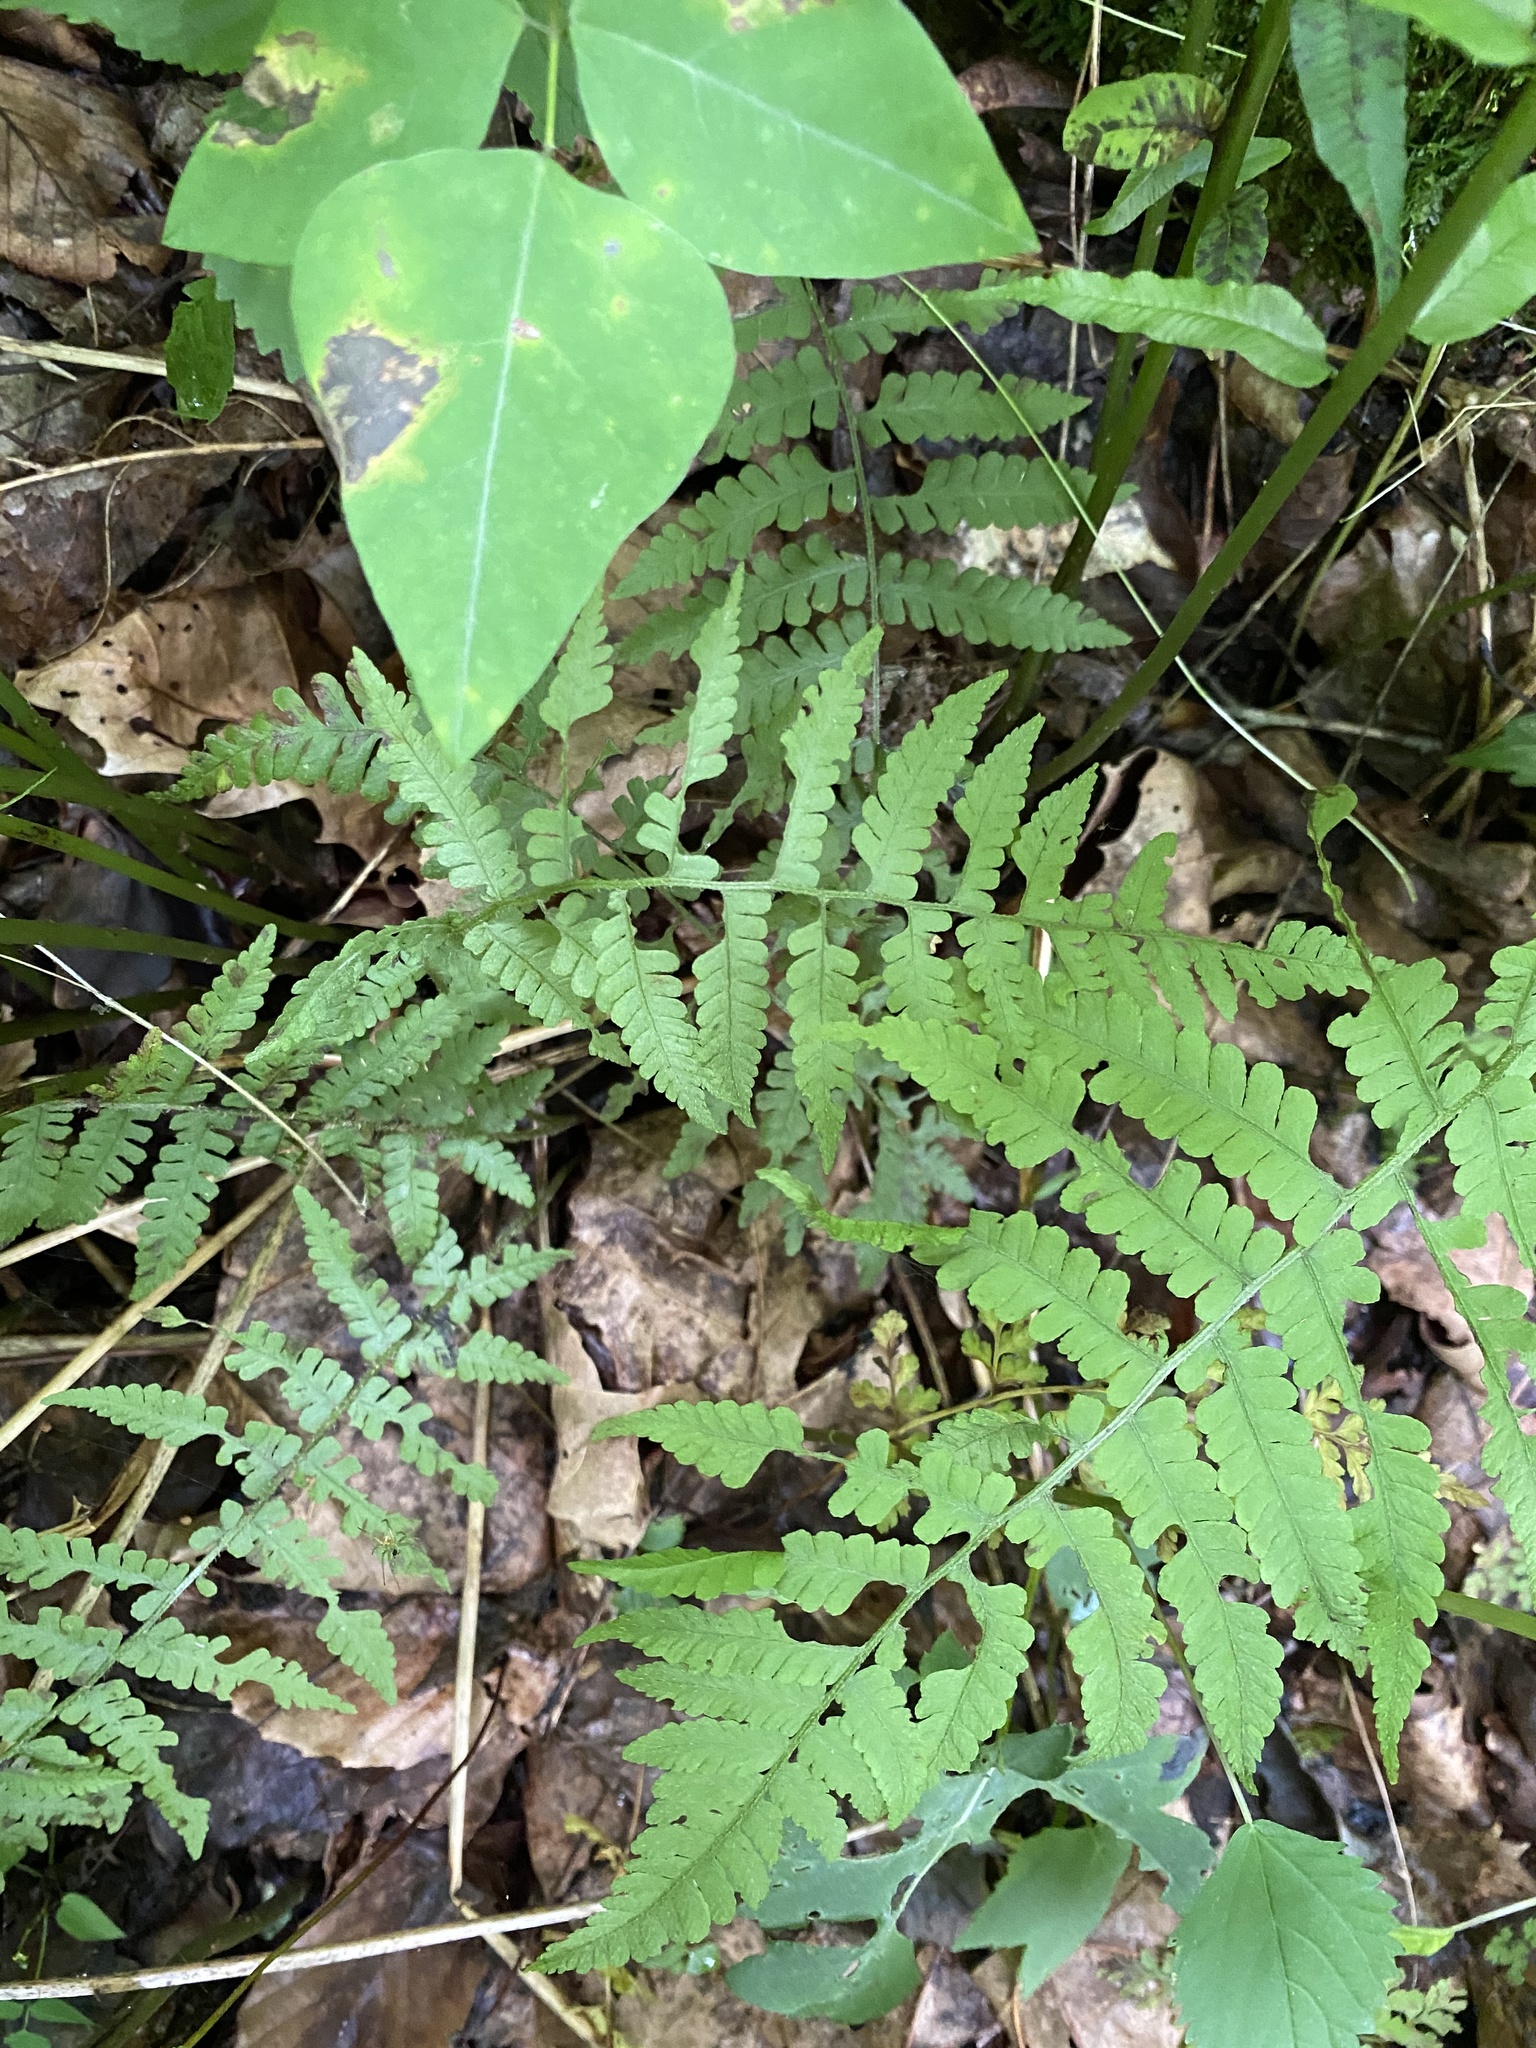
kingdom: Plantae
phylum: Tracheophyta
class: Polypodiopsida
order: Polypodiales
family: Athyriaceae
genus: Deparia
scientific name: Deparia acrostichoides
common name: Silver false spleenwort
